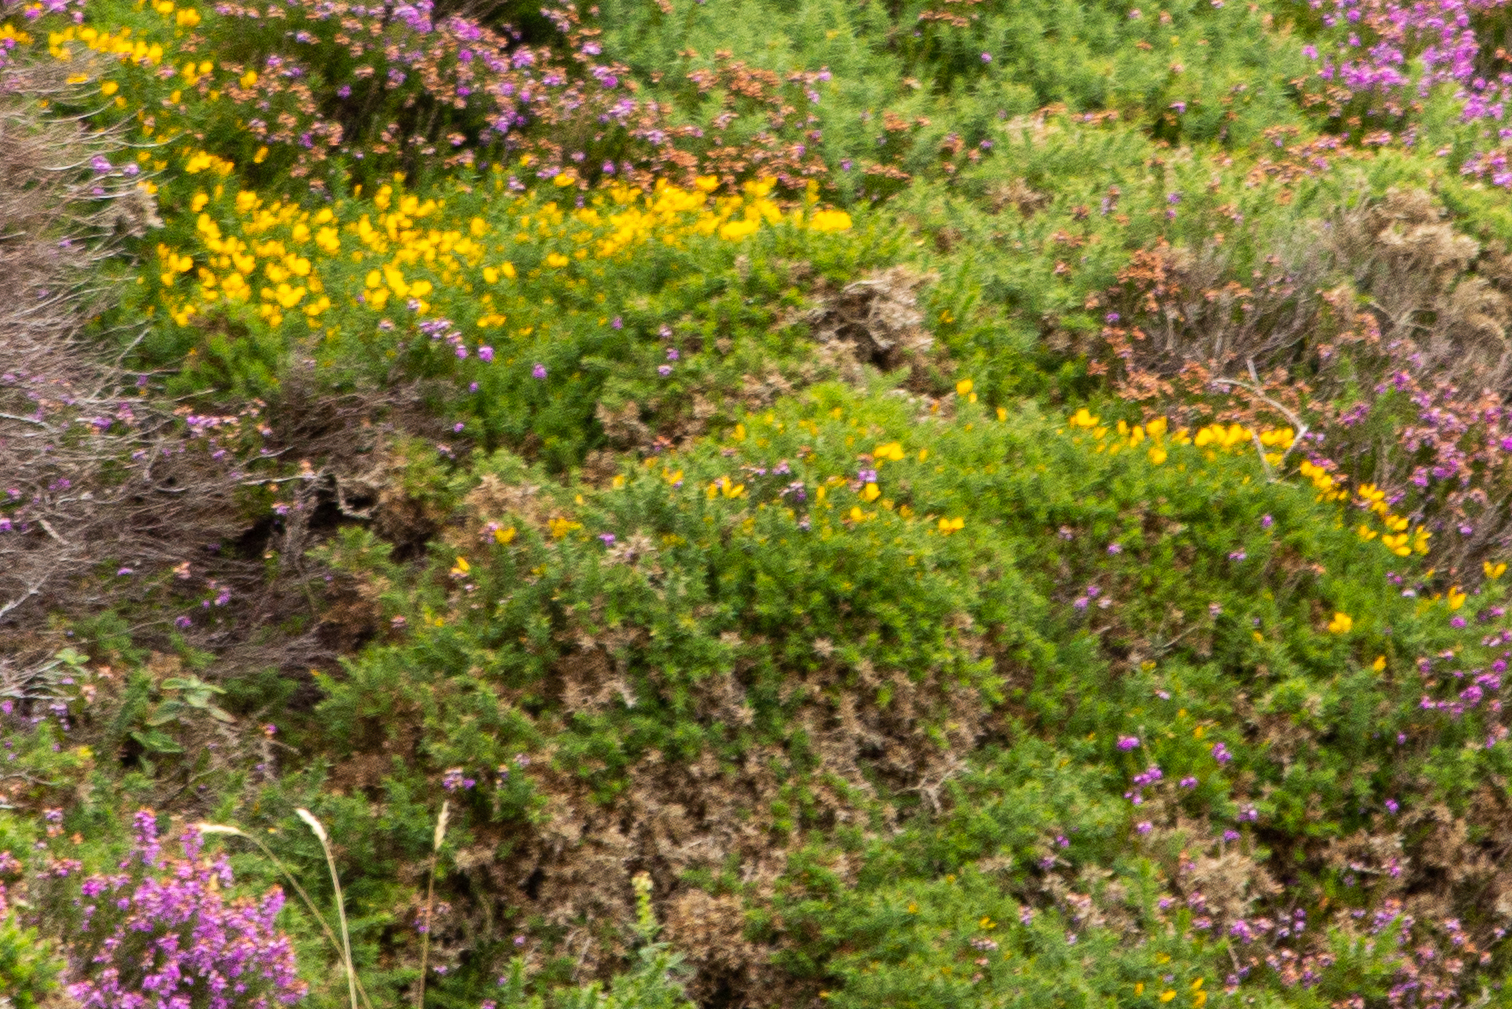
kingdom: Plantae
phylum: Tracheophyta
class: Magnoliopsida
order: Fabales
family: Fabaceae
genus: Ulex
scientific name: Ulex gallii
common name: Western gorse
